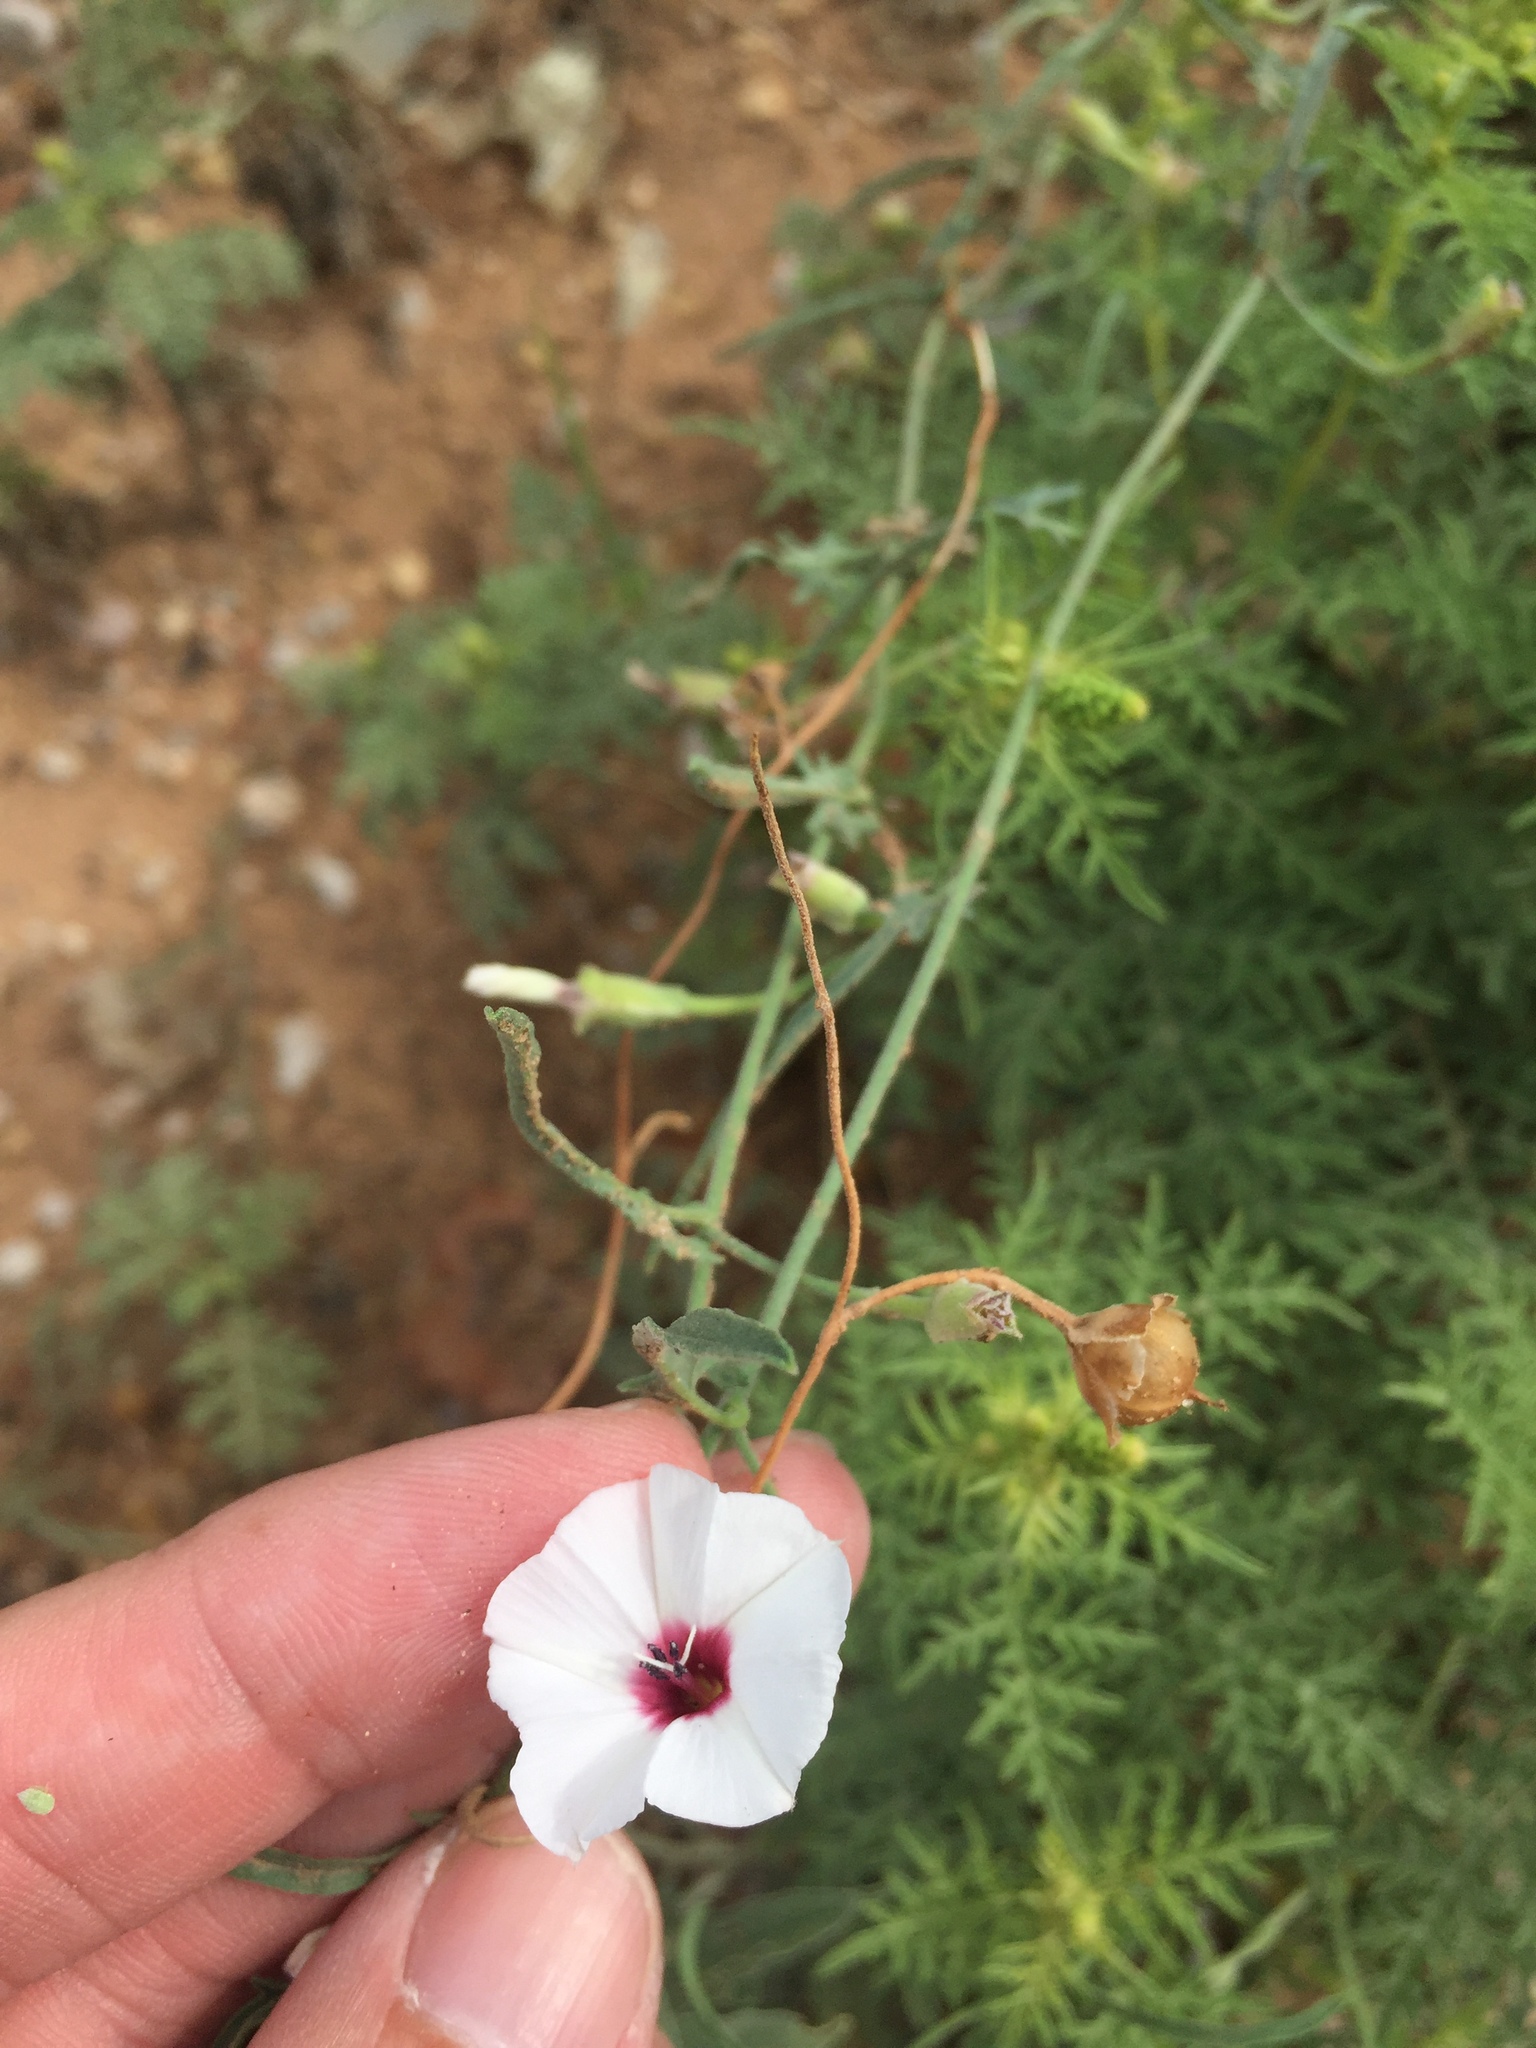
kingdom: Plantae
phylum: Tracheophyta
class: Magnoliopsida
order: Solanales
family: Convolvulaceae
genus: Convolvulus
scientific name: Convolvulus equitans
